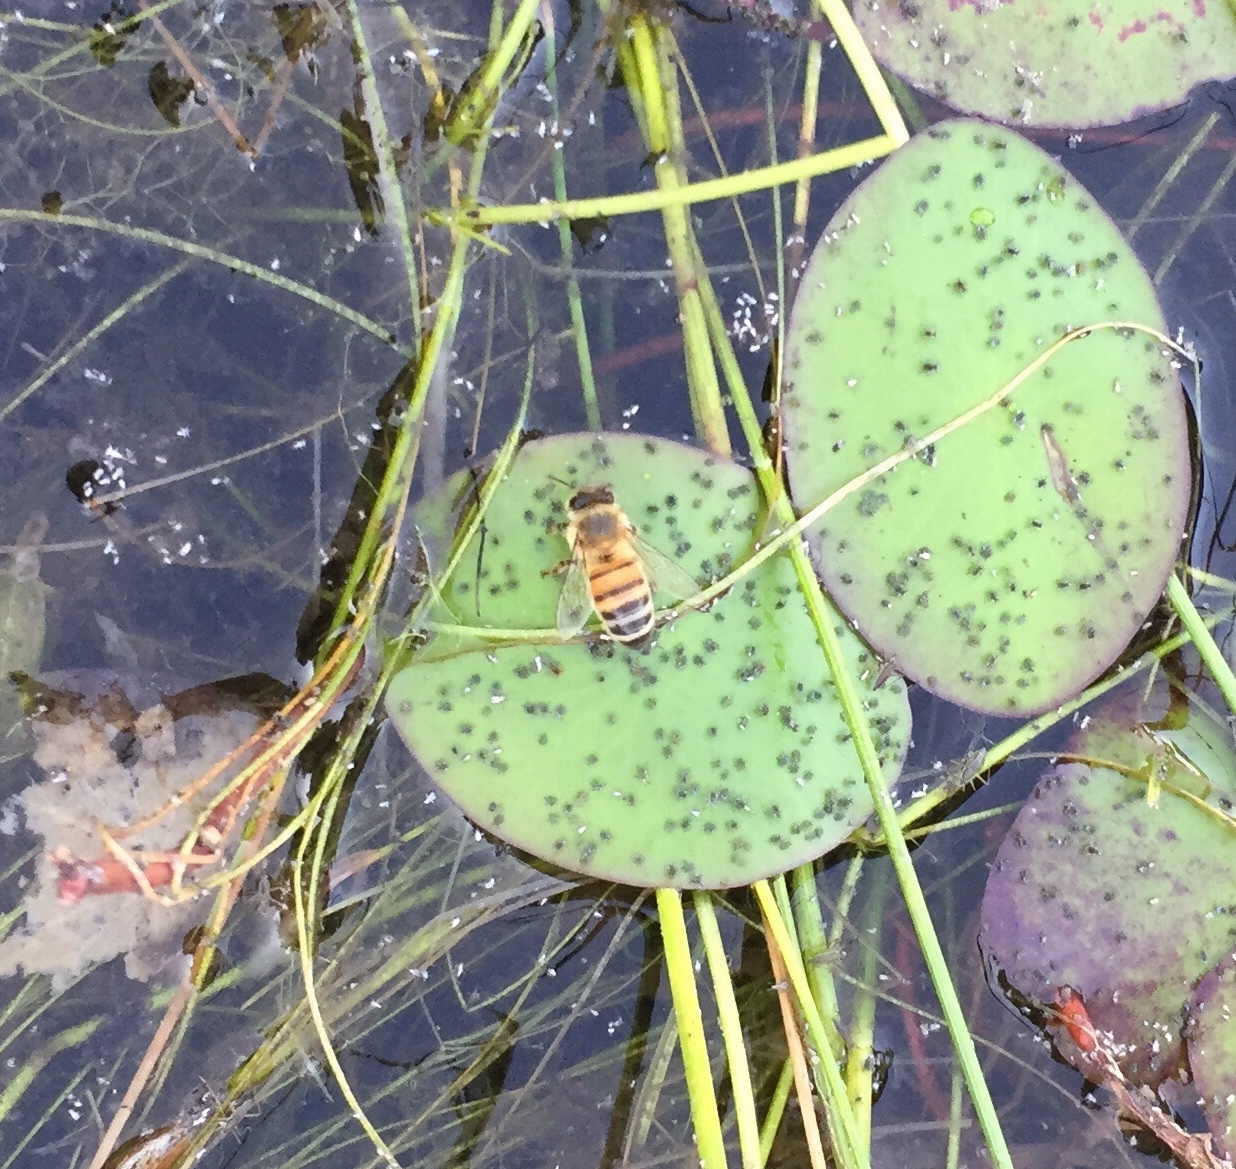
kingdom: Animalia
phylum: Arthropoda
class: Insecta
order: Hymenoptera
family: Apidae
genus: Apis
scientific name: Apis mellifera
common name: Honey bee
